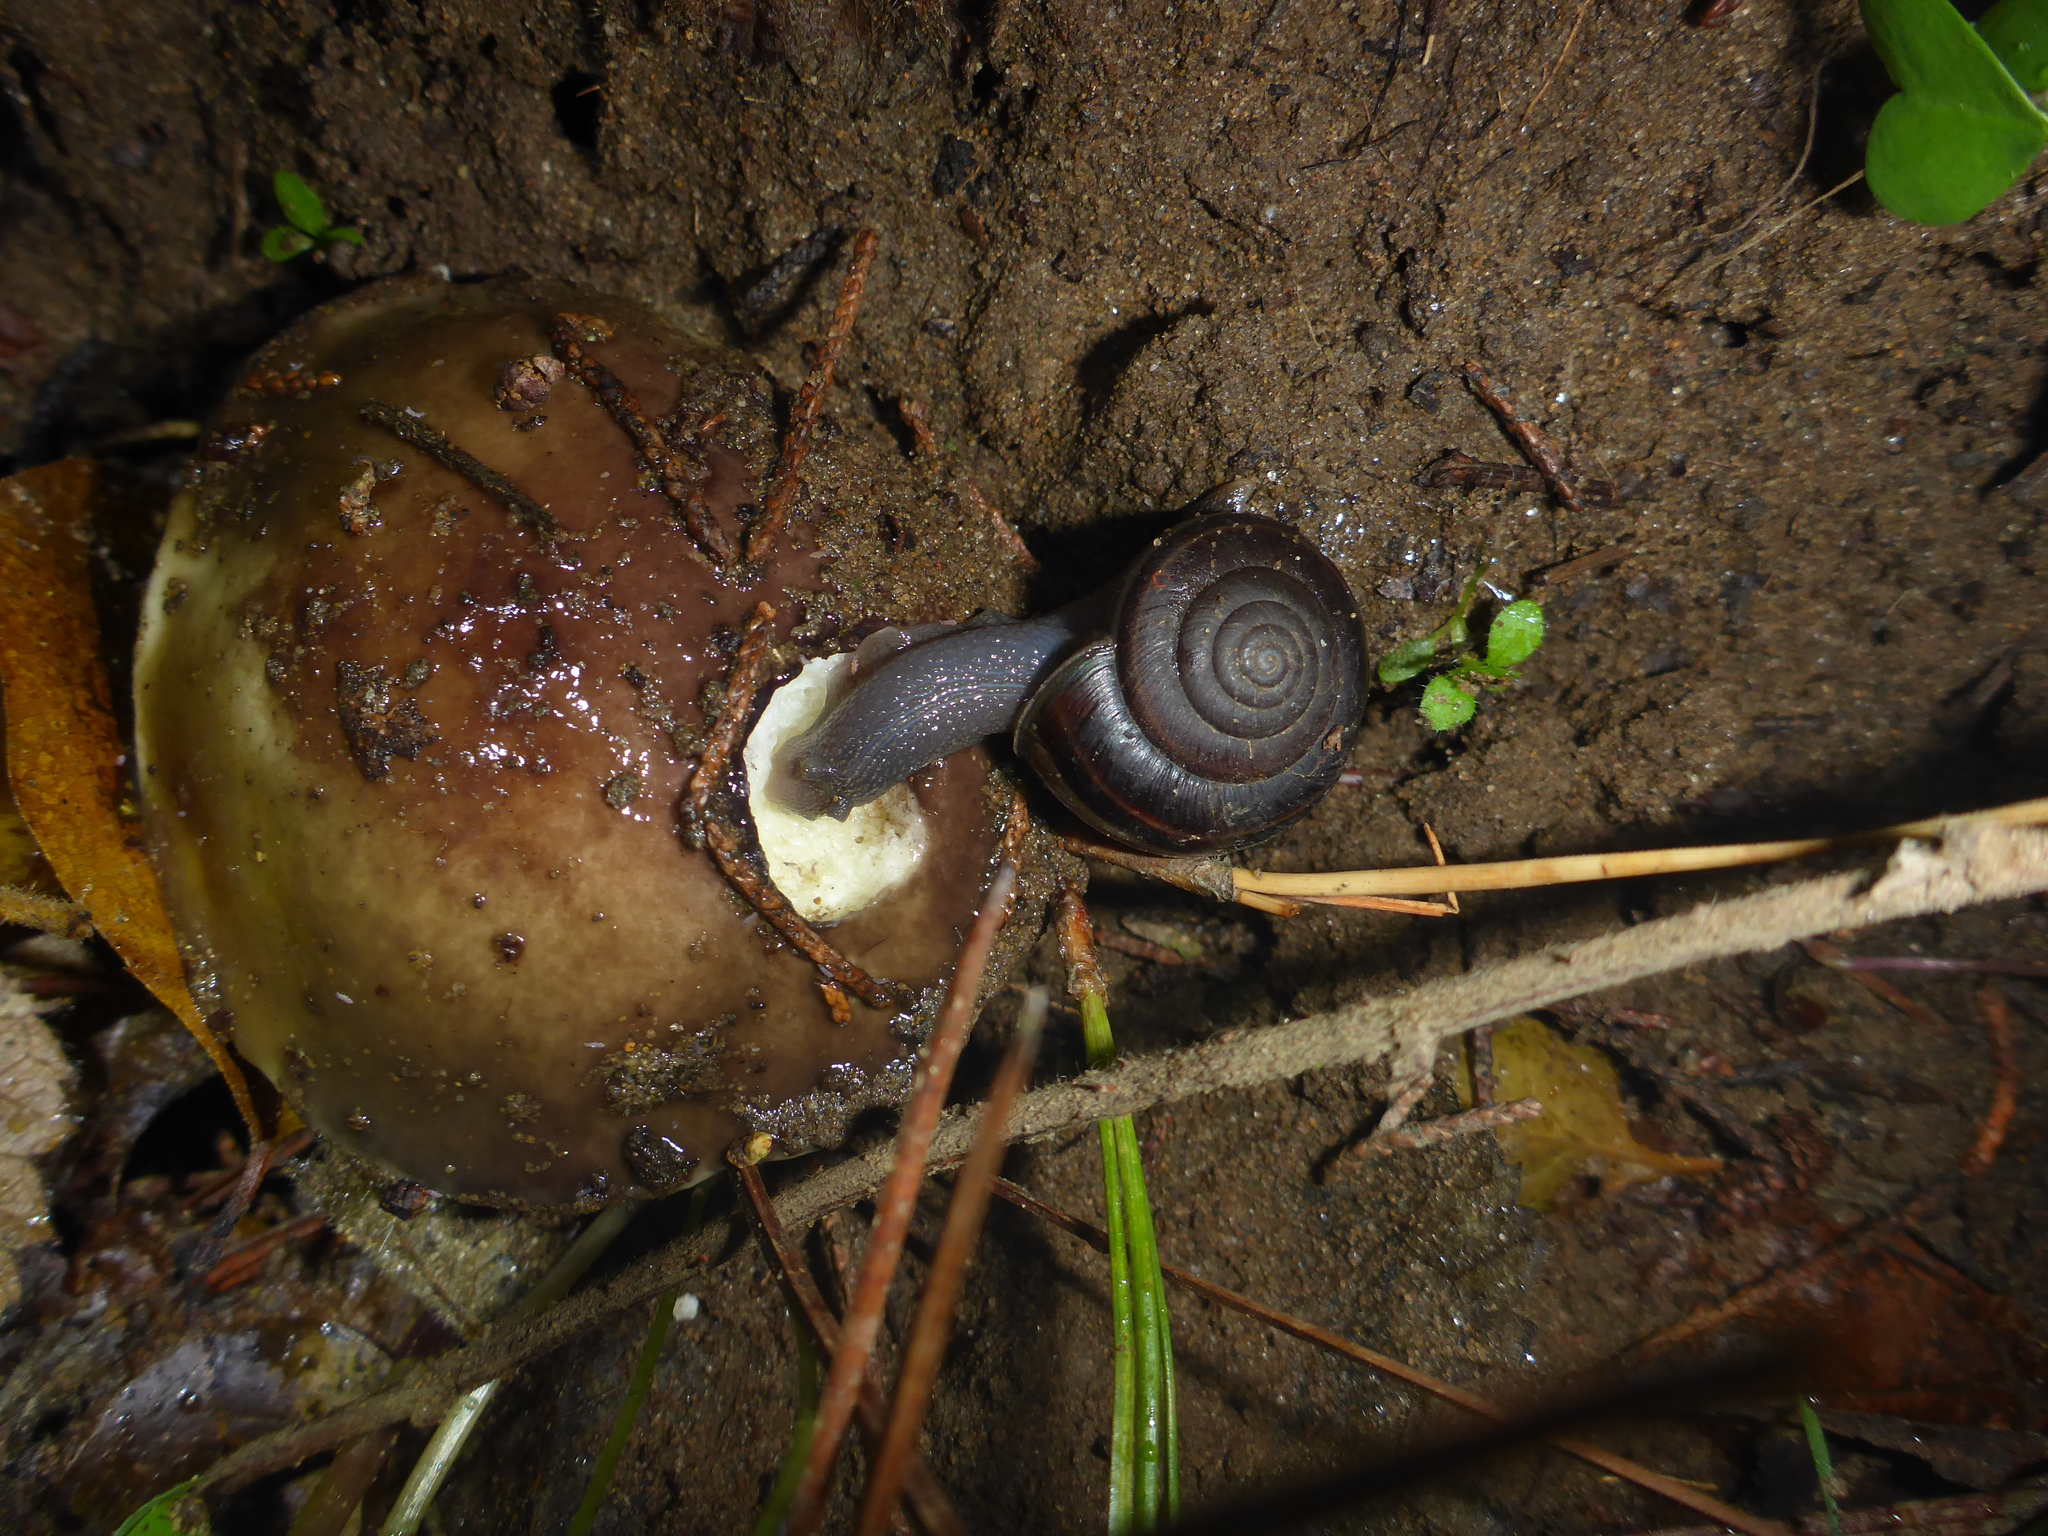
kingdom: Animalia
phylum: Mollusca
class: Gastropoda
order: Stylommatophora
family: Xanthonychidae
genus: Helminthoglypta
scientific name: Helminthoglypta sequoicola
